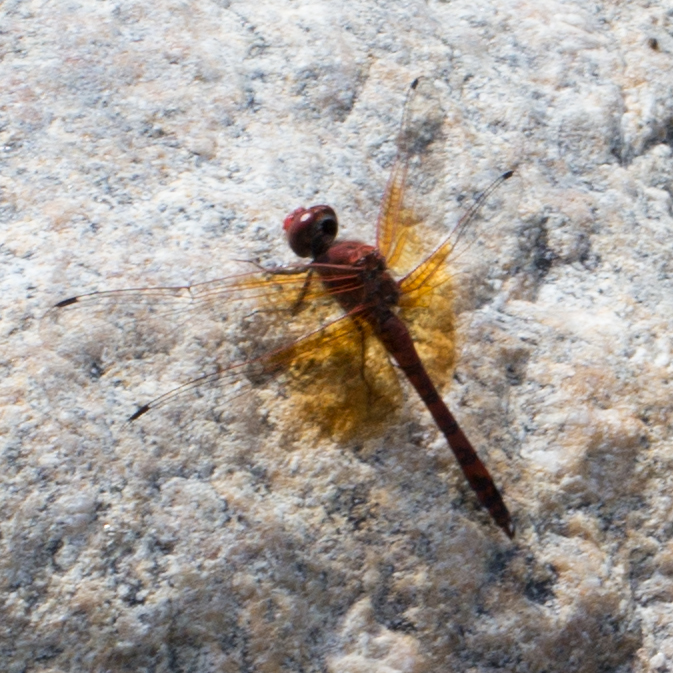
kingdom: Animalia
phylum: Arthropoda
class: Insecta
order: Odonata
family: Libellulidae
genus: Paltothemis
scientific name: Paltothemis lineatipes
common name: Red rock skimmer
